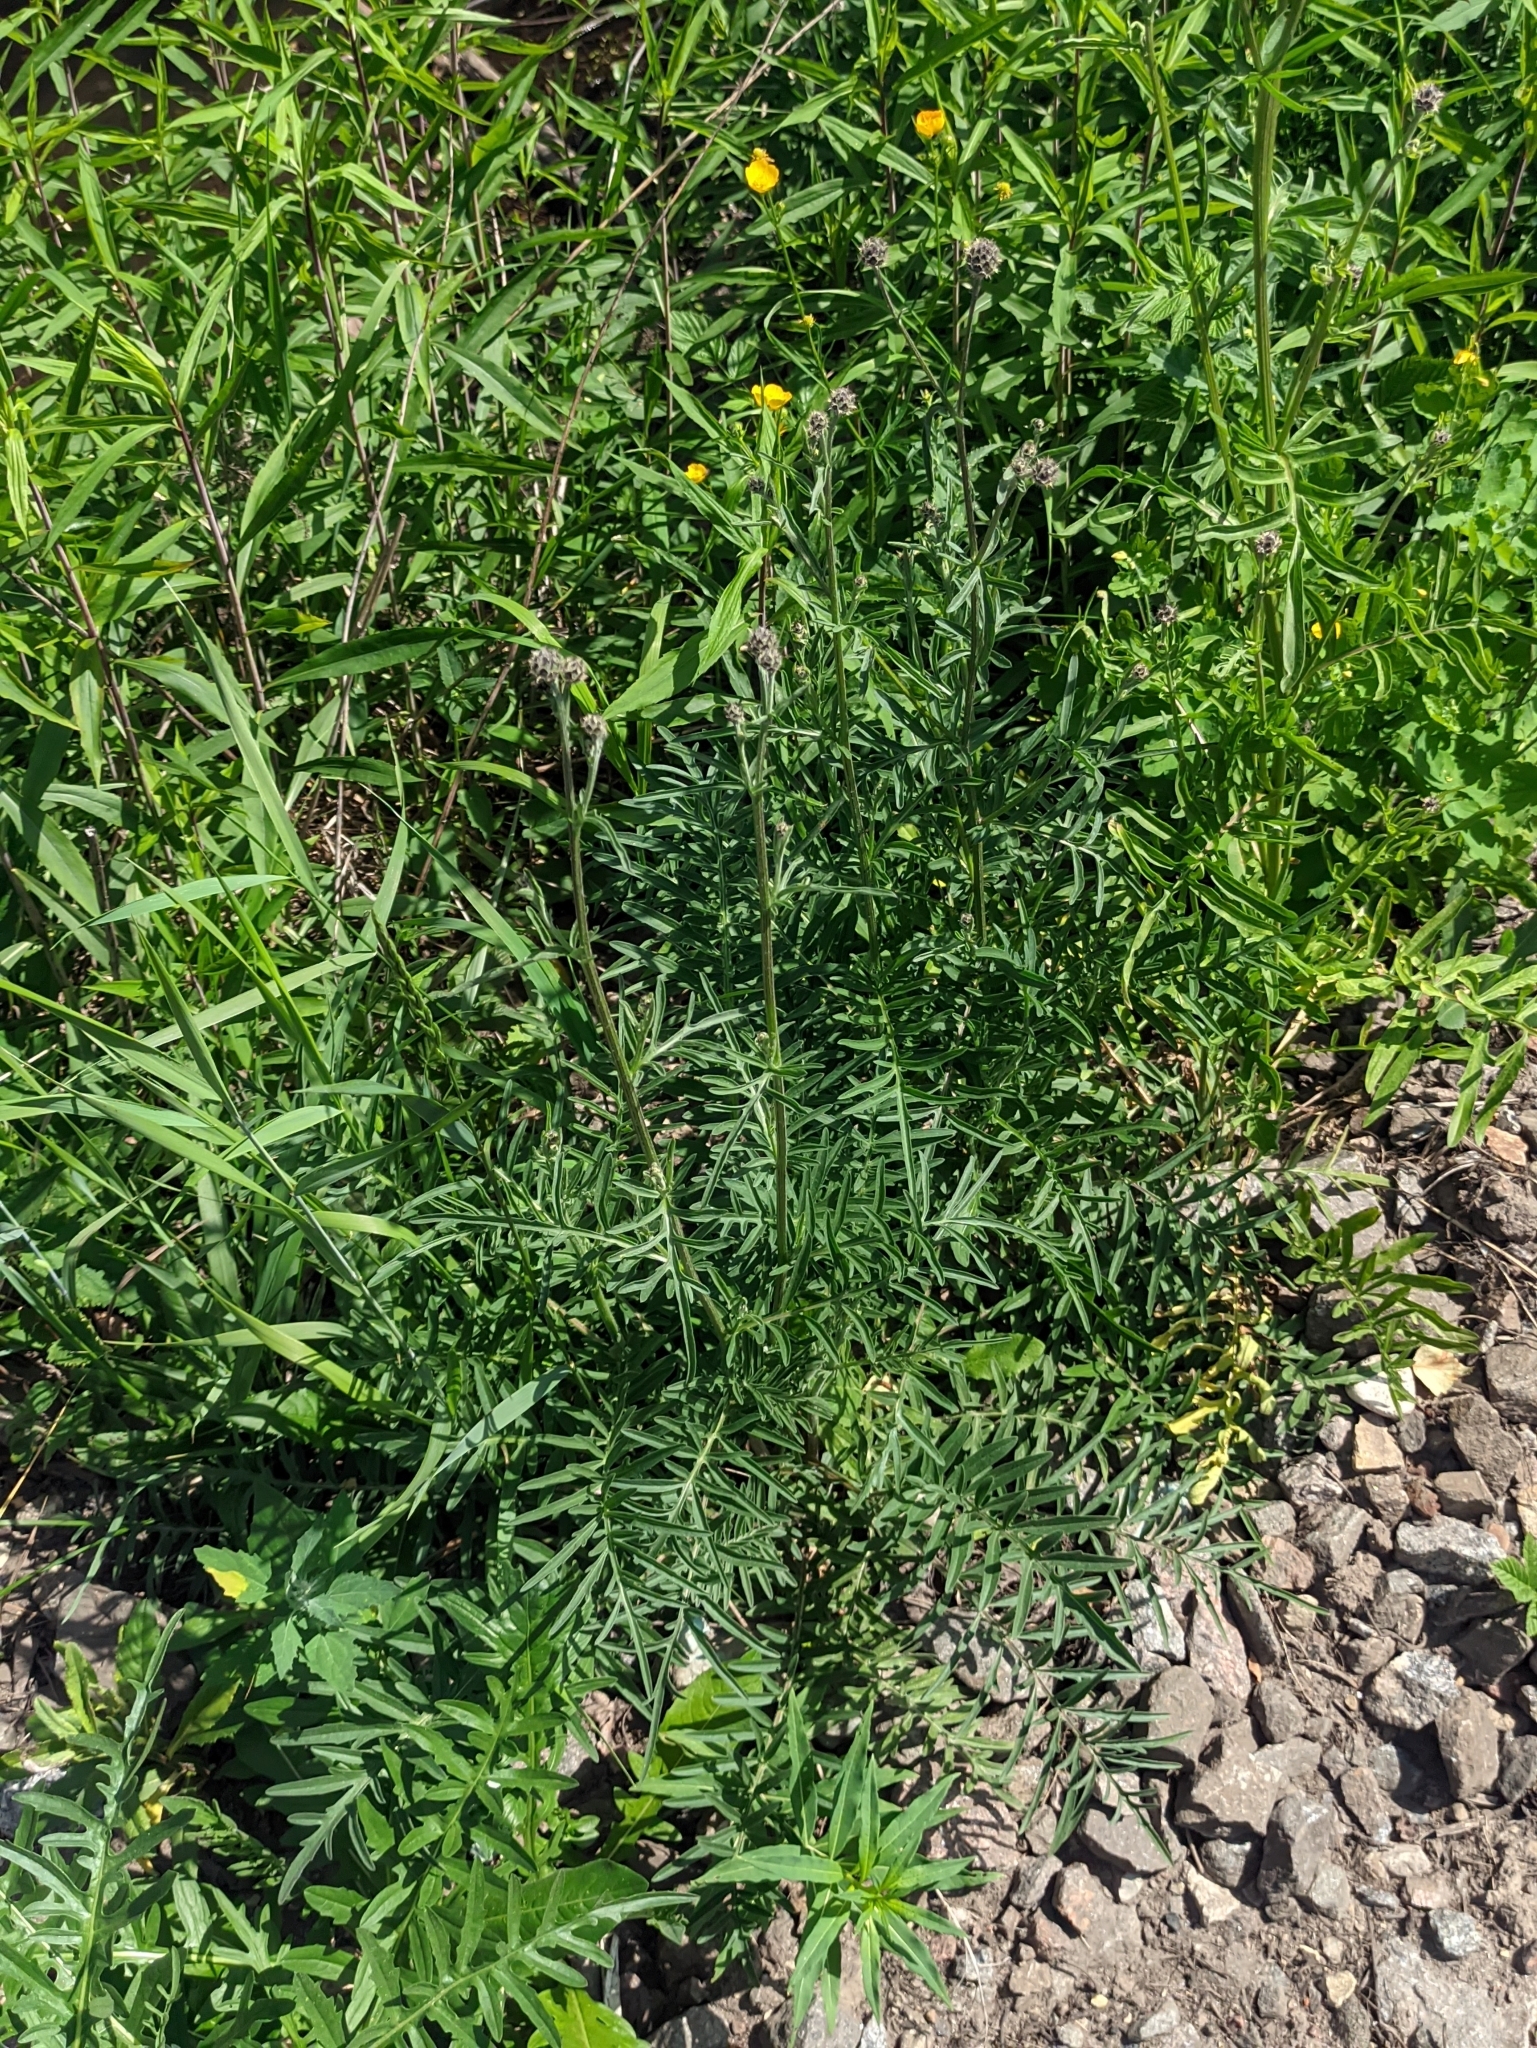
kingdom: Plantae
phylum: Tracheophyta
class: Magnoliopsida
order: Asterales
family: Asteraceae
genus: Centaurea
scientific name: Centaurea scabiosa
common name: Greater knapweed
